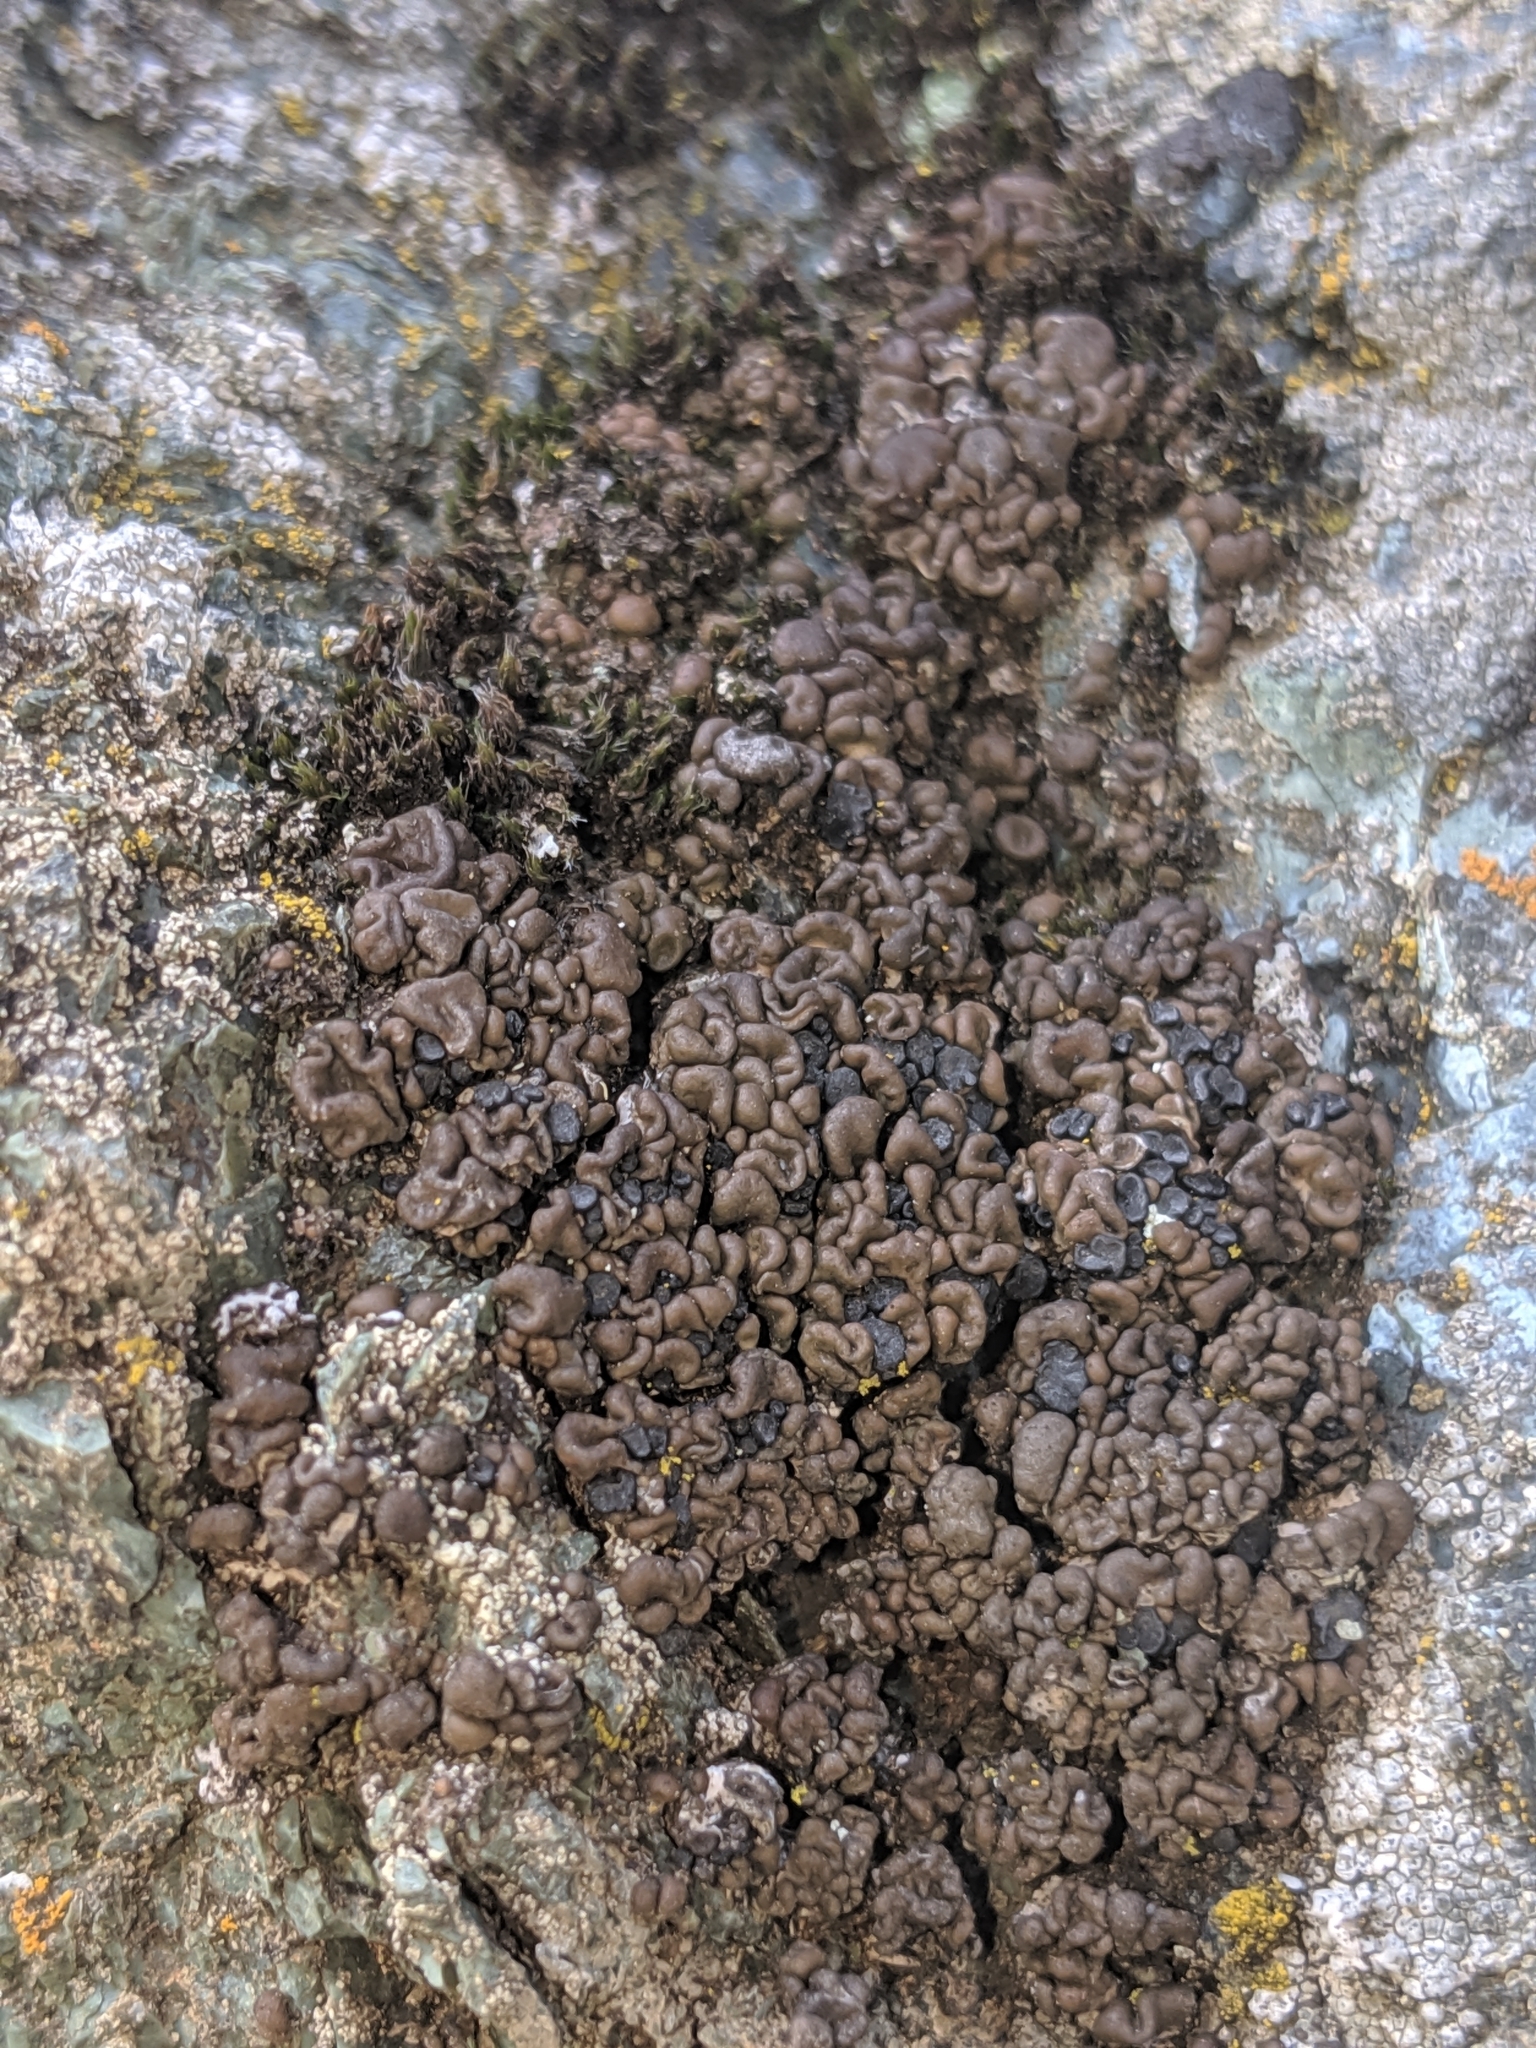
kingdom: Fungi
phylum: Ascomycota
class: Lecanoromycetes
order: Rhizocarpales
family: Rhizocarpaceae
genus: Rhizocarpon
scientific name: Rhizocarpon bolanderi
